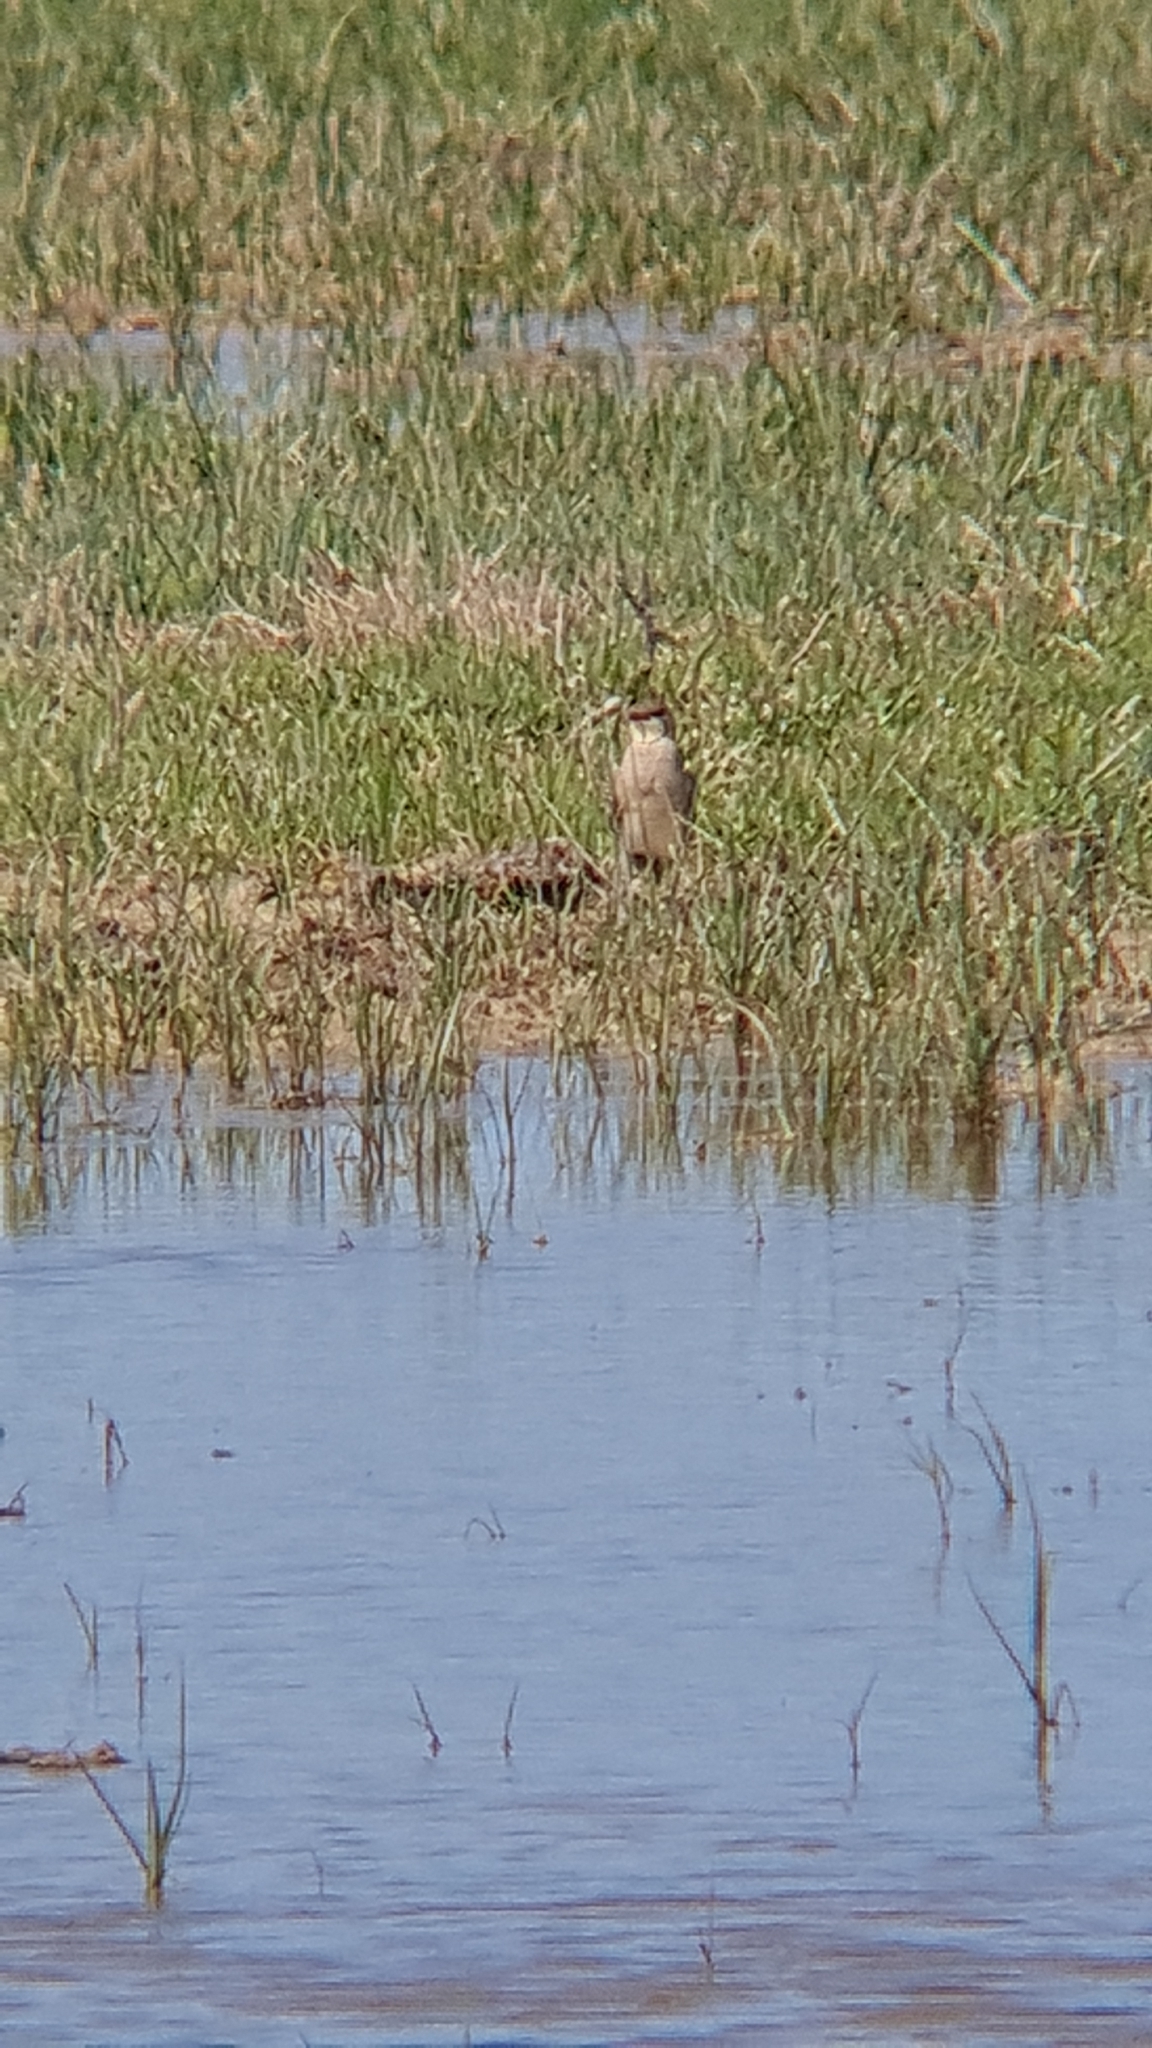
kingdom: Animalia
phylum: Chordata
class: Aves
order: Charadriiformes
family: Glareolidae
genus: Glareola
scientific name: Glareola pratincola
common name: Collared pratincole
